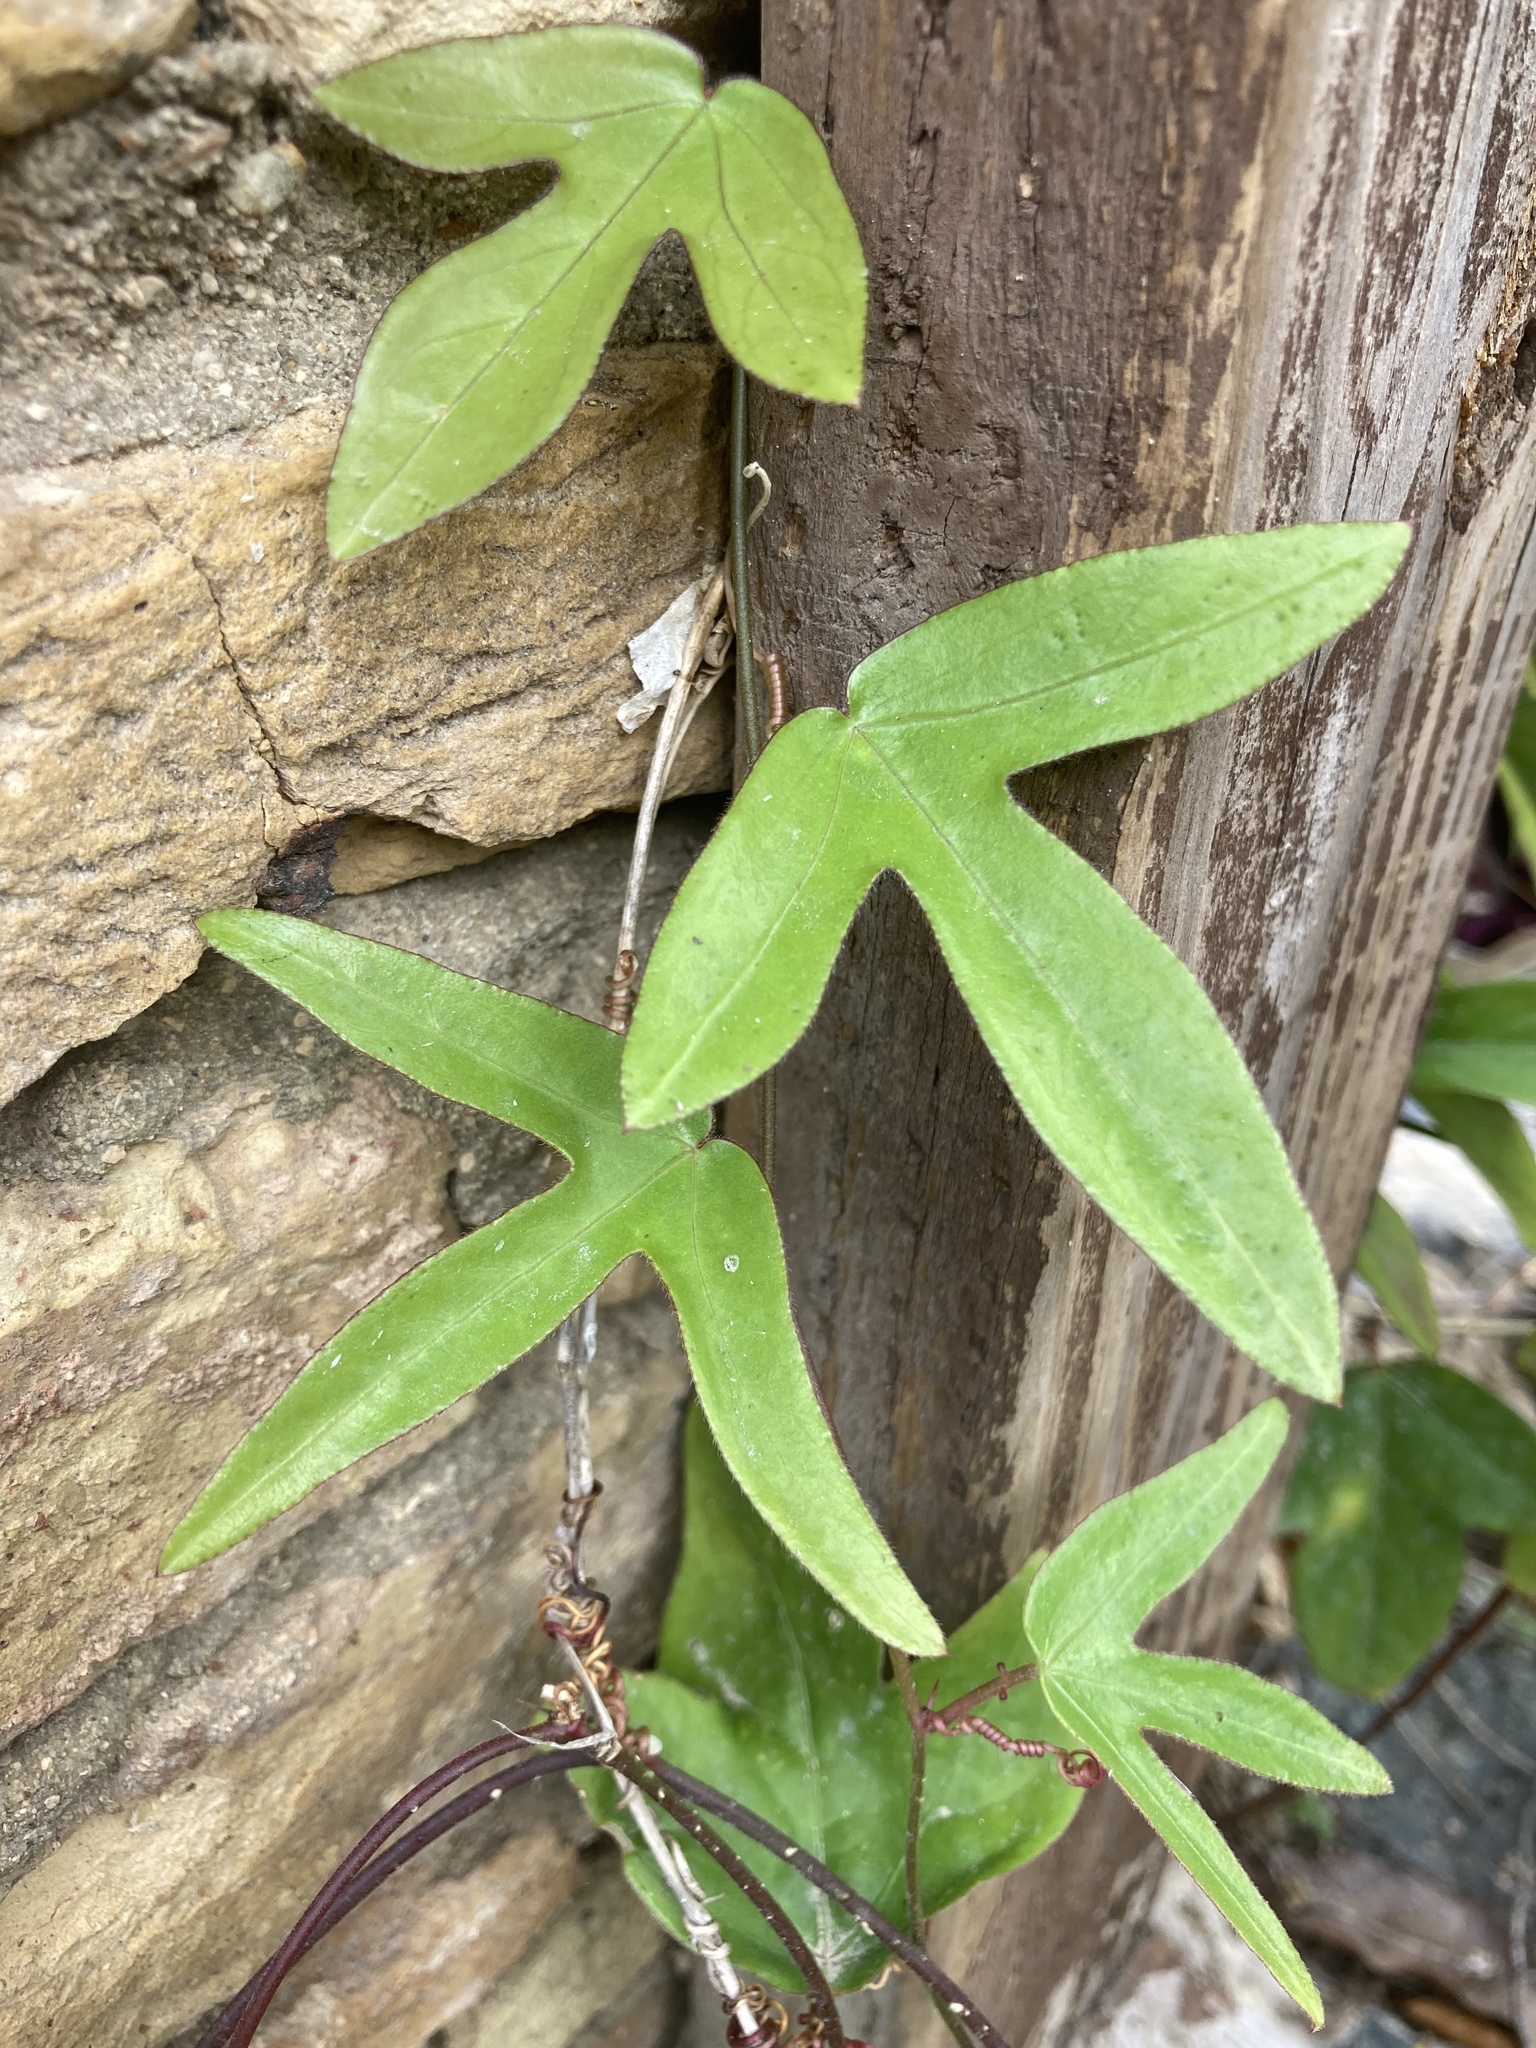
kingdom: Plantae
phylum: Tracheophyta
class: Magnoliopsida
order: Malpighiales
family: Passifloraceae
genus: Passiflora
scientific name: Passiflora pallida
